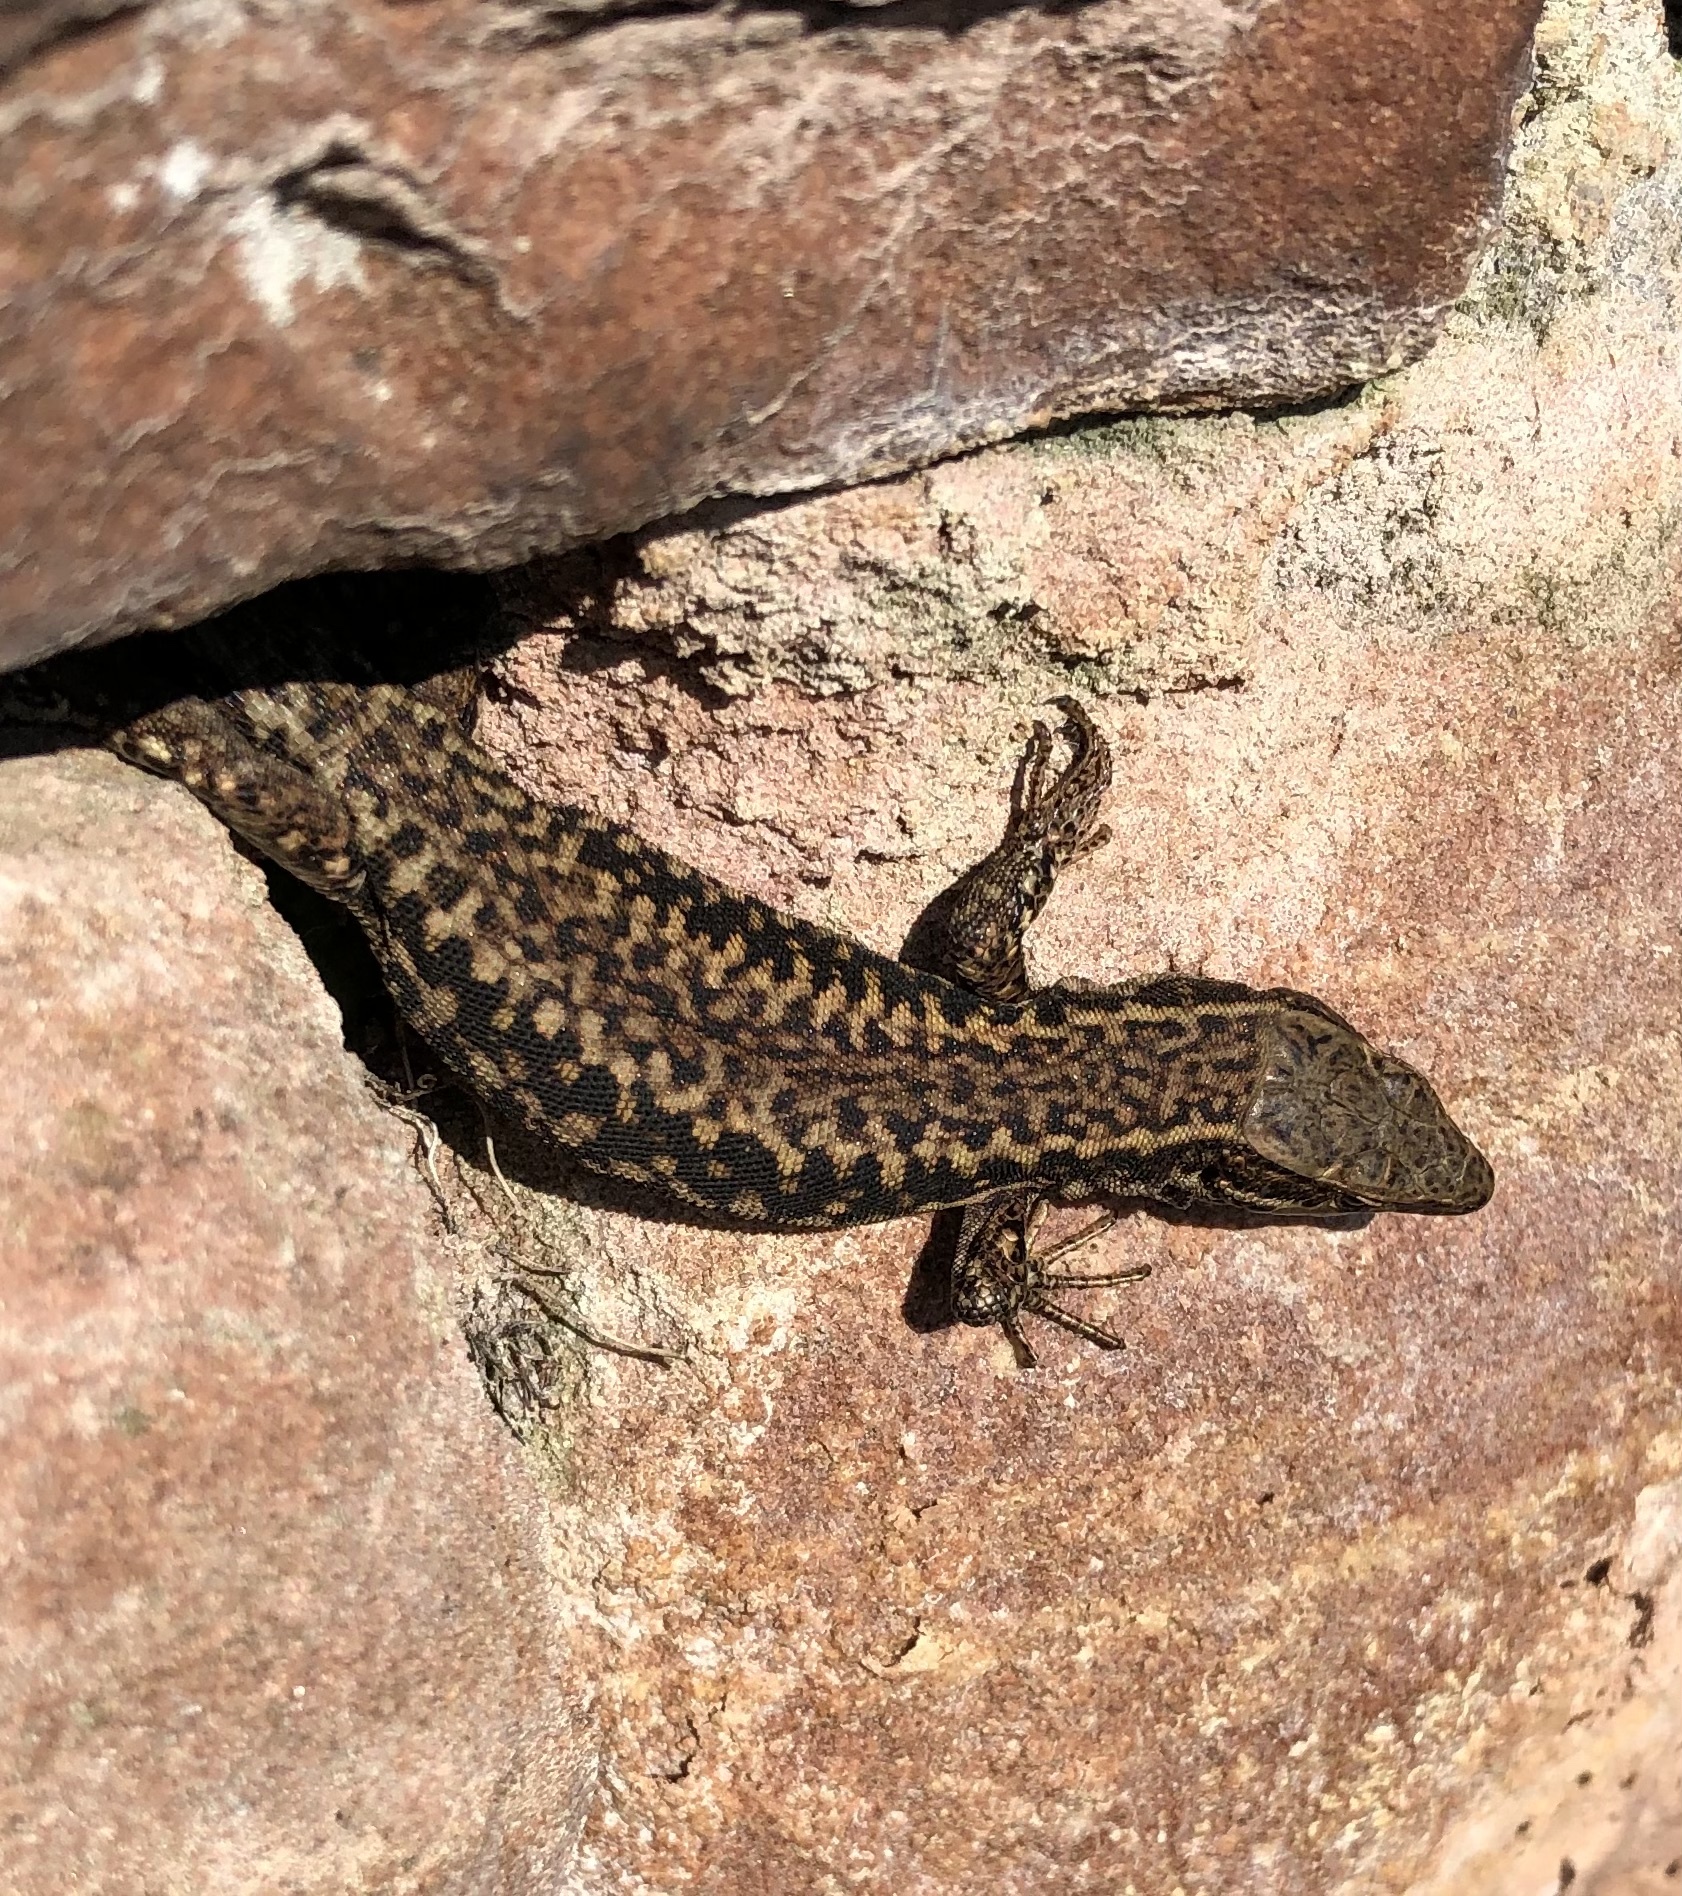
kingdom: Animalia
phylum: Chordata
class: Squamata
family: Lacertidae
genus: Podarcis
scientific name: Podarcis muralis
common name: Common wall lizard
